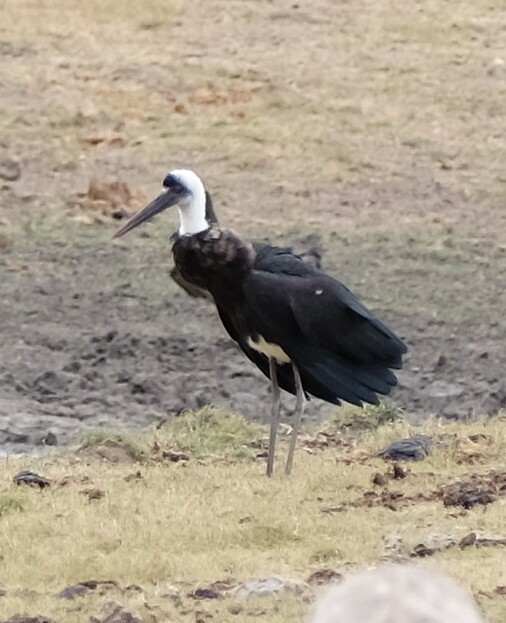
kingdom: Animalia
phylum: Chordata
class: Aves
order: Ciconiiformes
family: Ciconiidae
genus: Ciconia
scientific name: Ciconia microscelis
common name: African woollyneck
